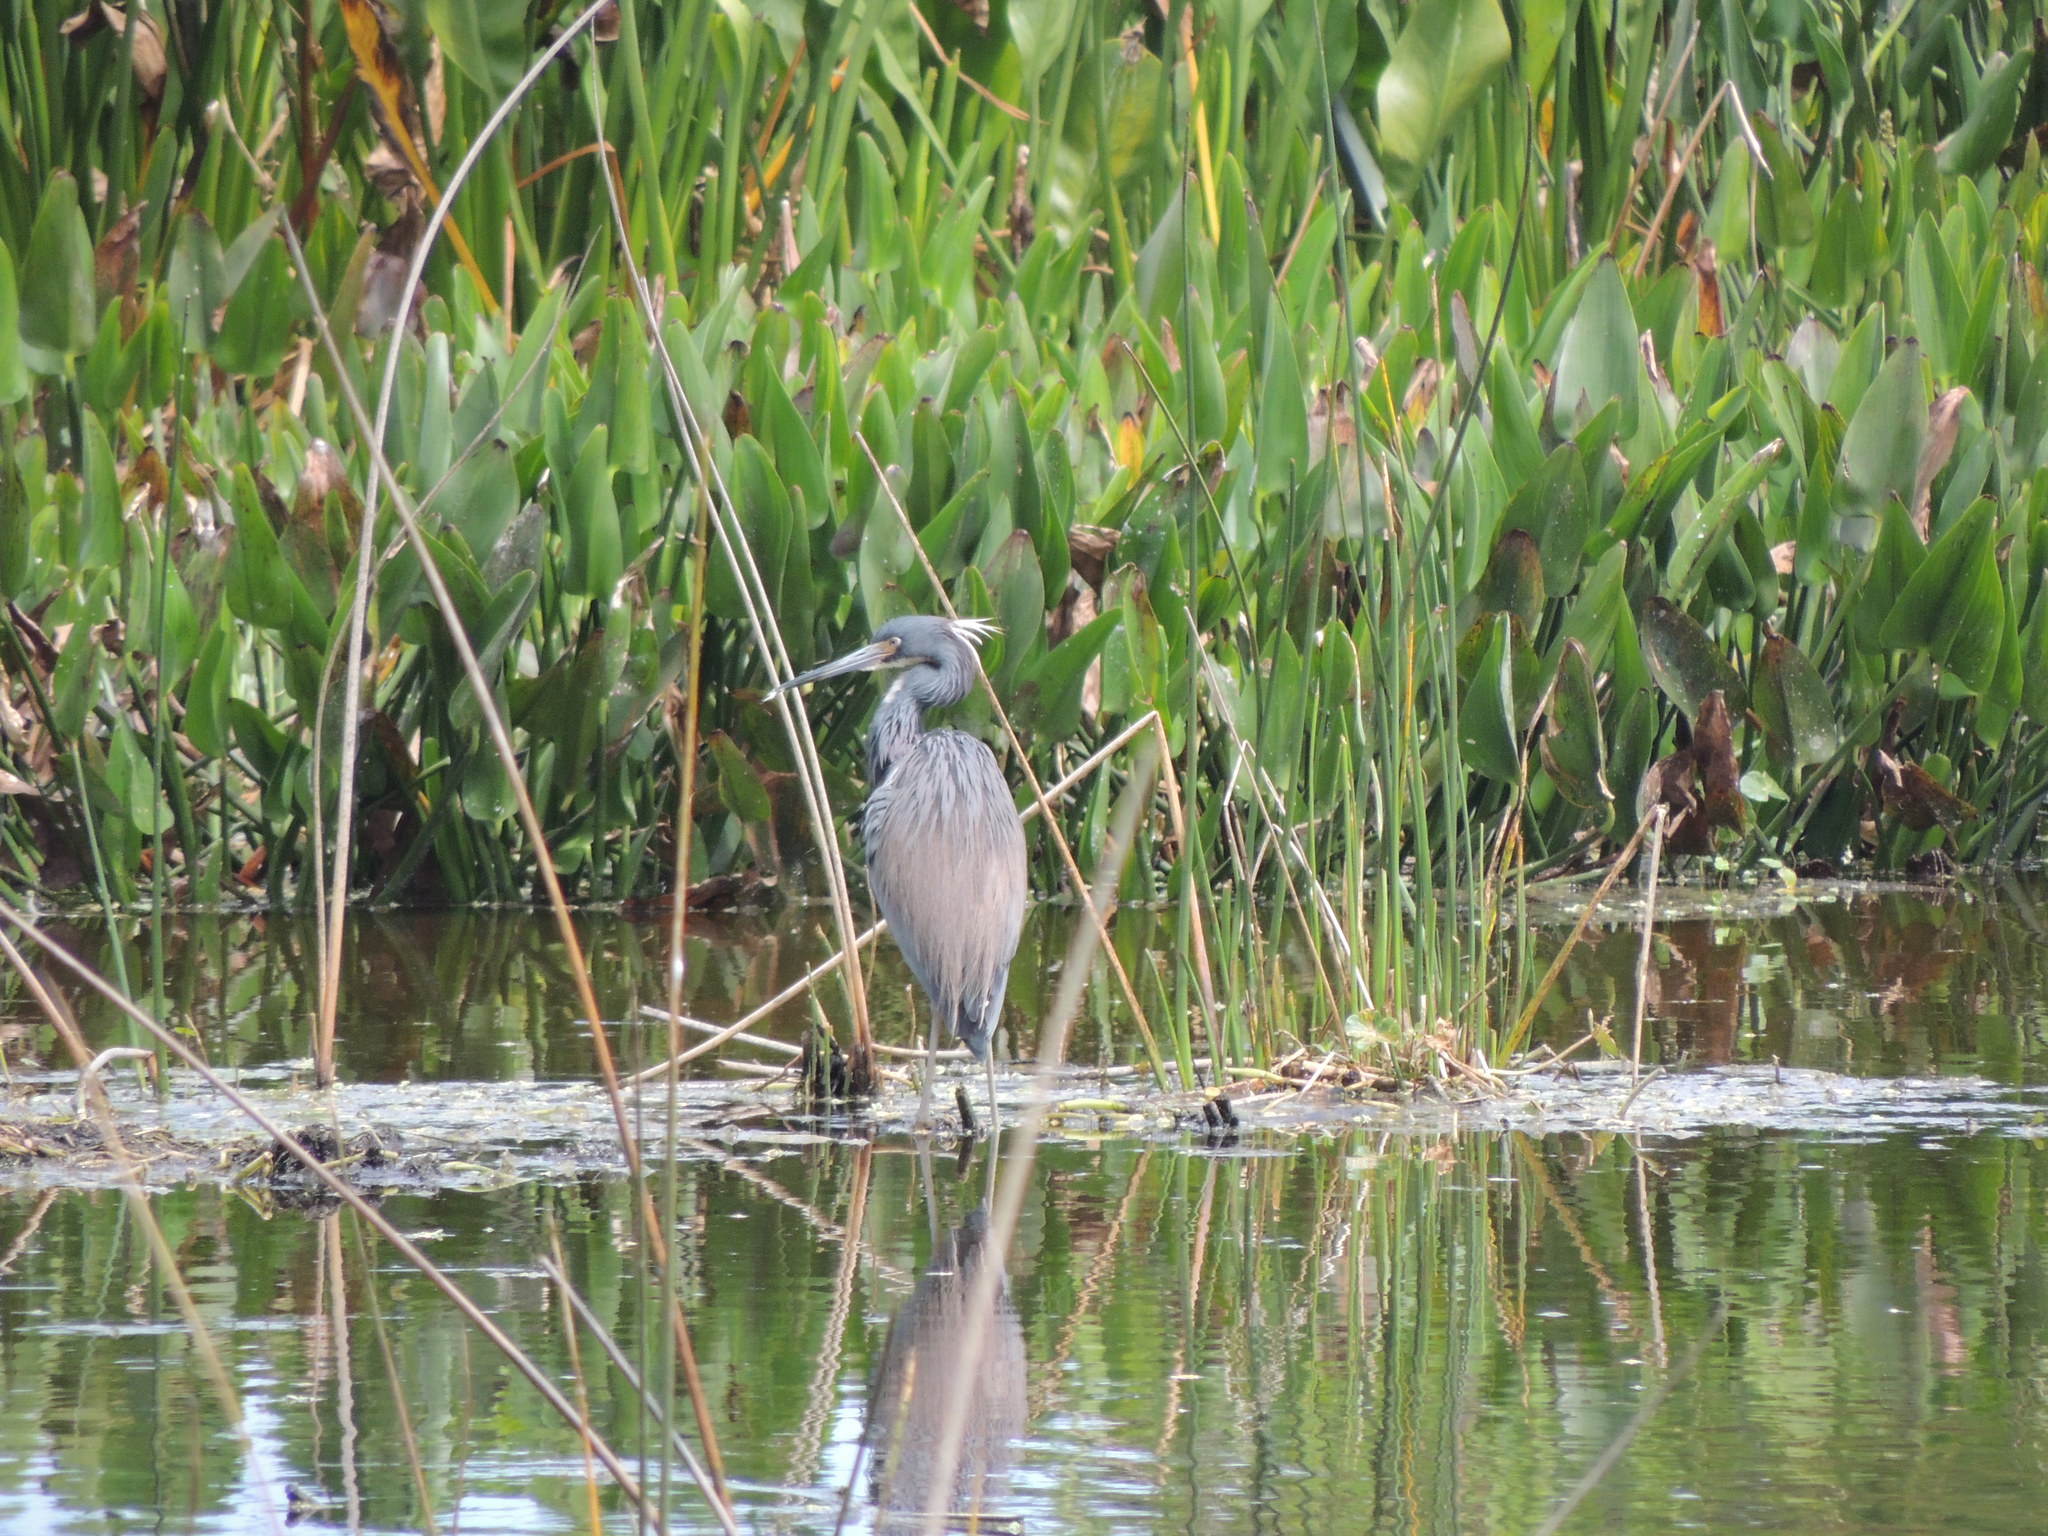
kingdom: Animalia
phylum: Chordata
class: Aves
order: Pelecaniformes
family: Ardeidae
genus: Egretta
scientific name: Egretta tricolor
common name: Tricolored heron
